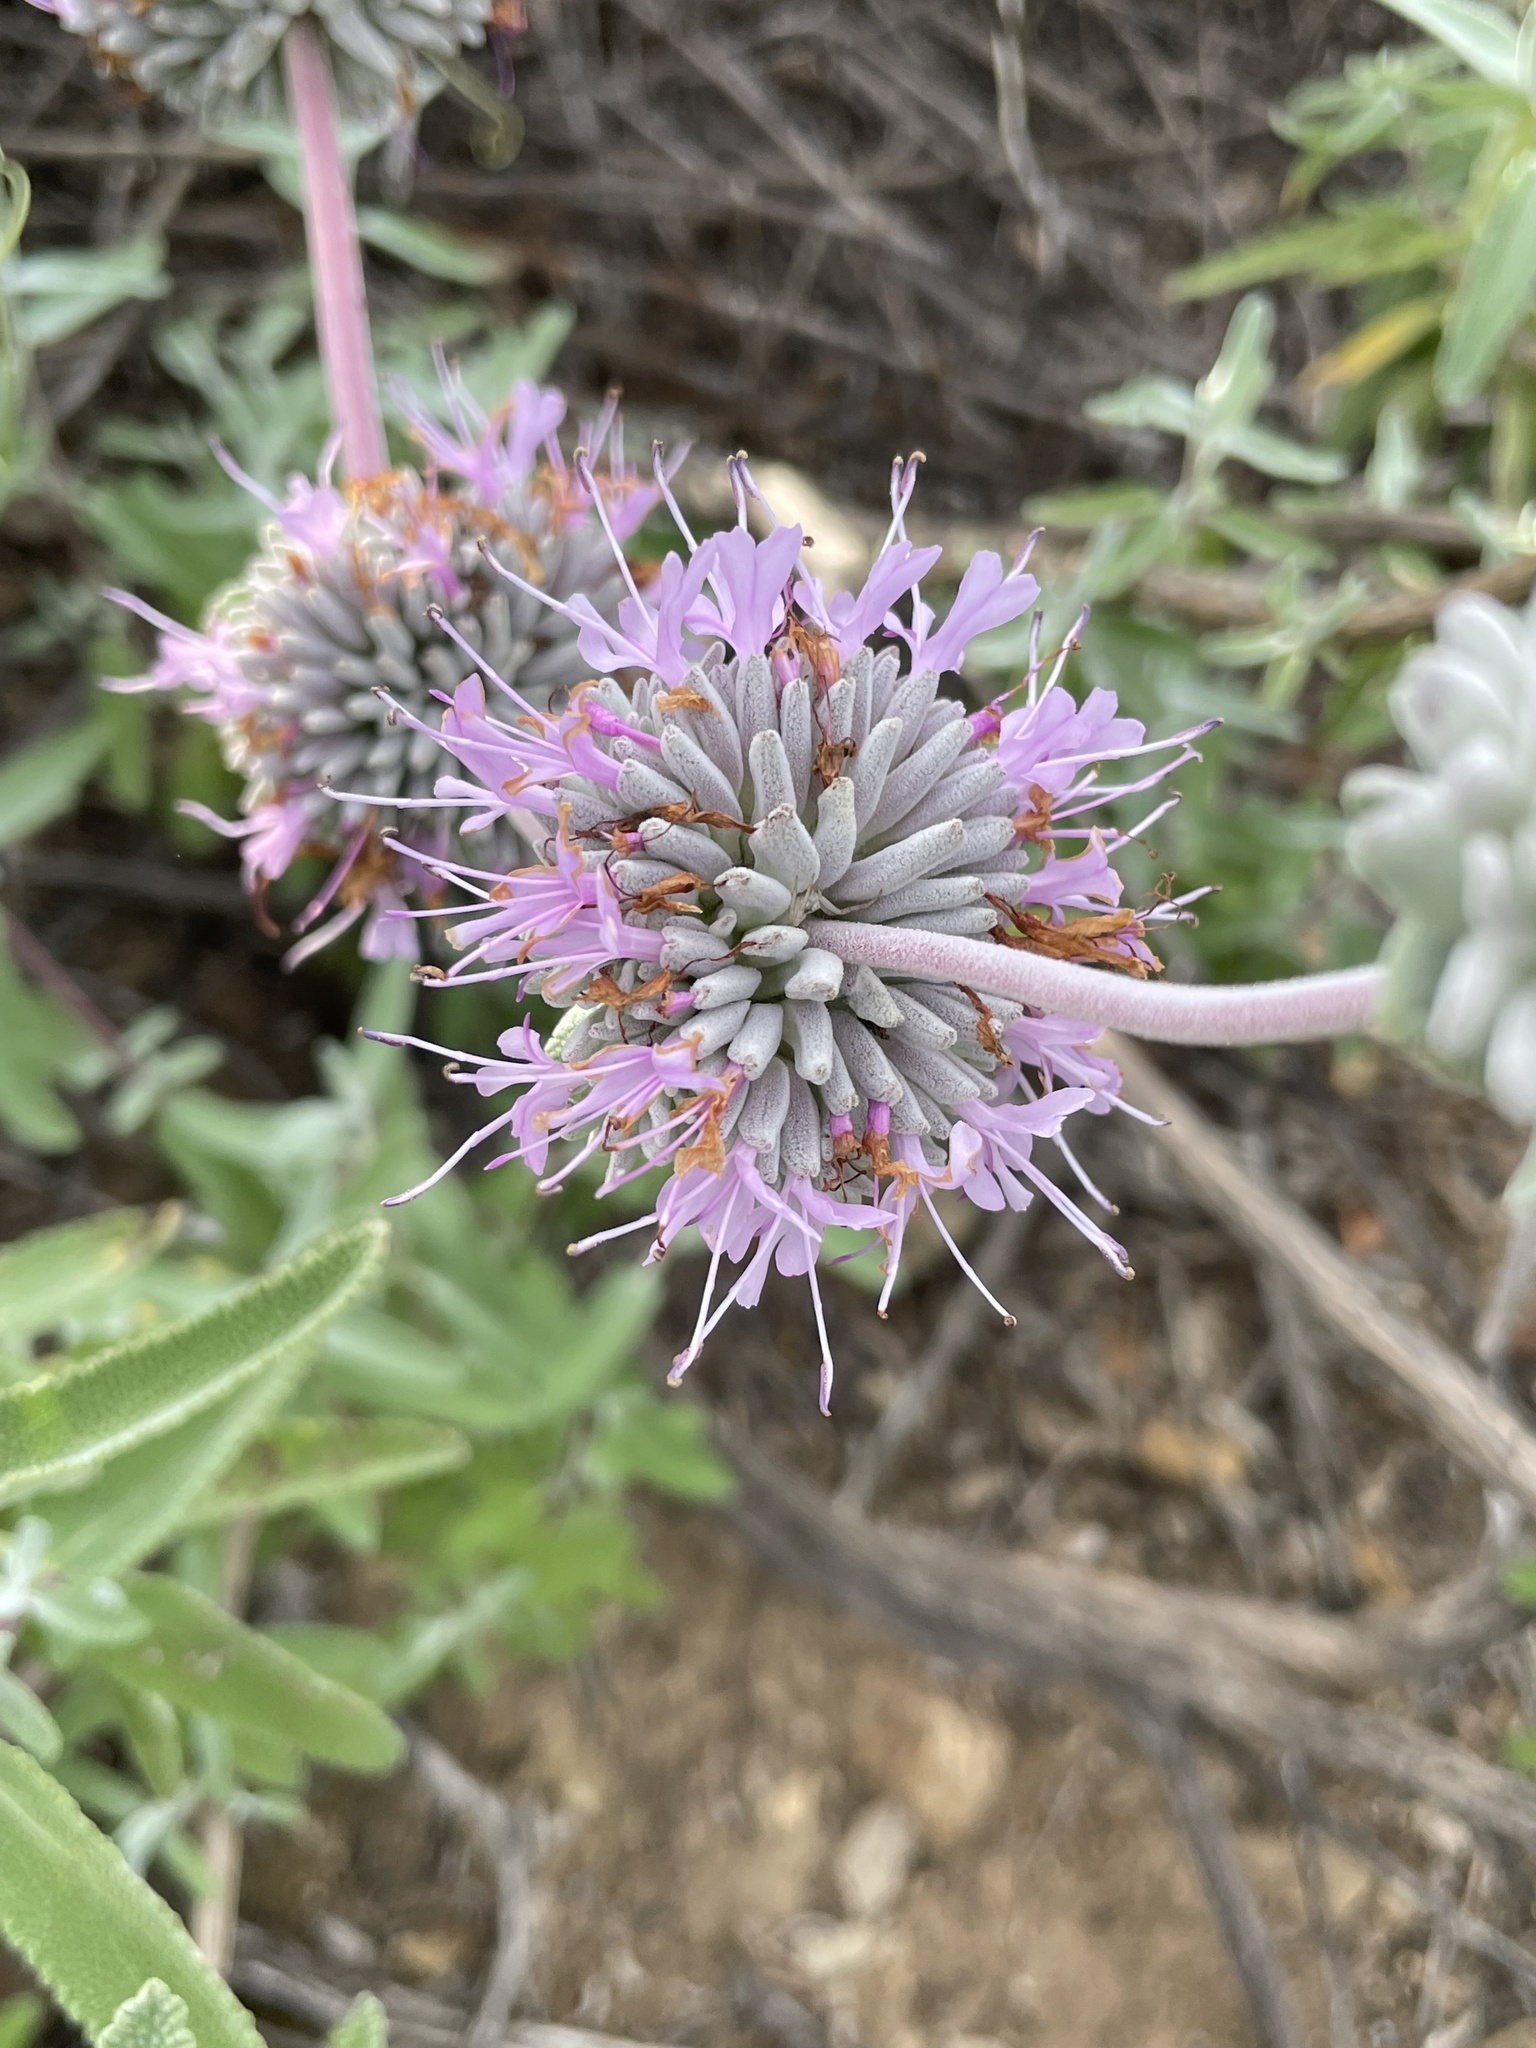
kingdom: Plantae
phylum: Tracheophyta
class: Magnoliopsida
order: Lamiales
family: Lamiaceae
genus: Salvia
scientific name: Salvia leucophylla
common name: Purple sage
